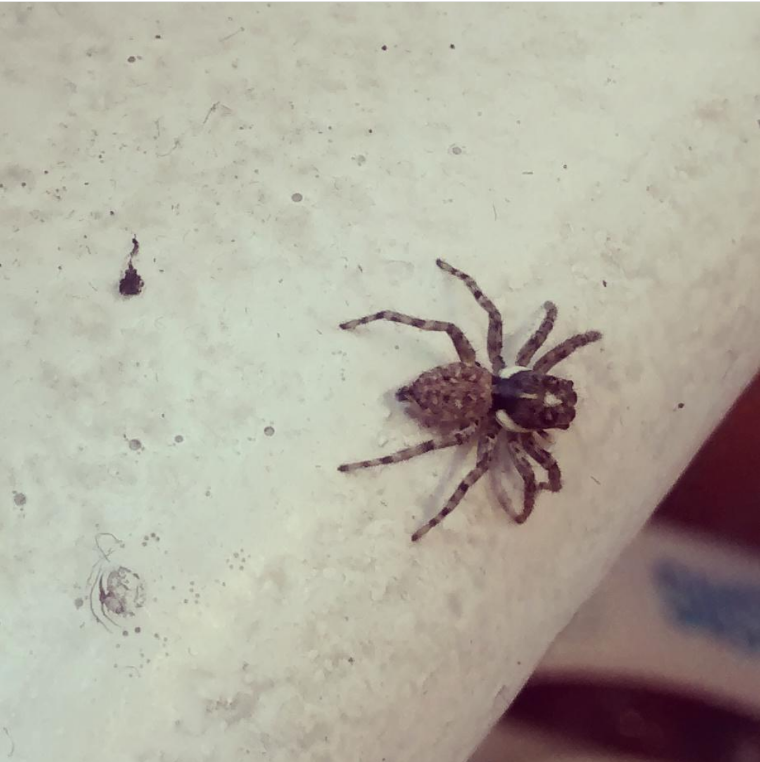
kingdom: Animalia
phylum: Arthropoda
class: Arachnida
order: Araneae
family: Salticidae
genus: Menemerus
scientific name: Menemerus semilimbatus
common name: Jumping spider
